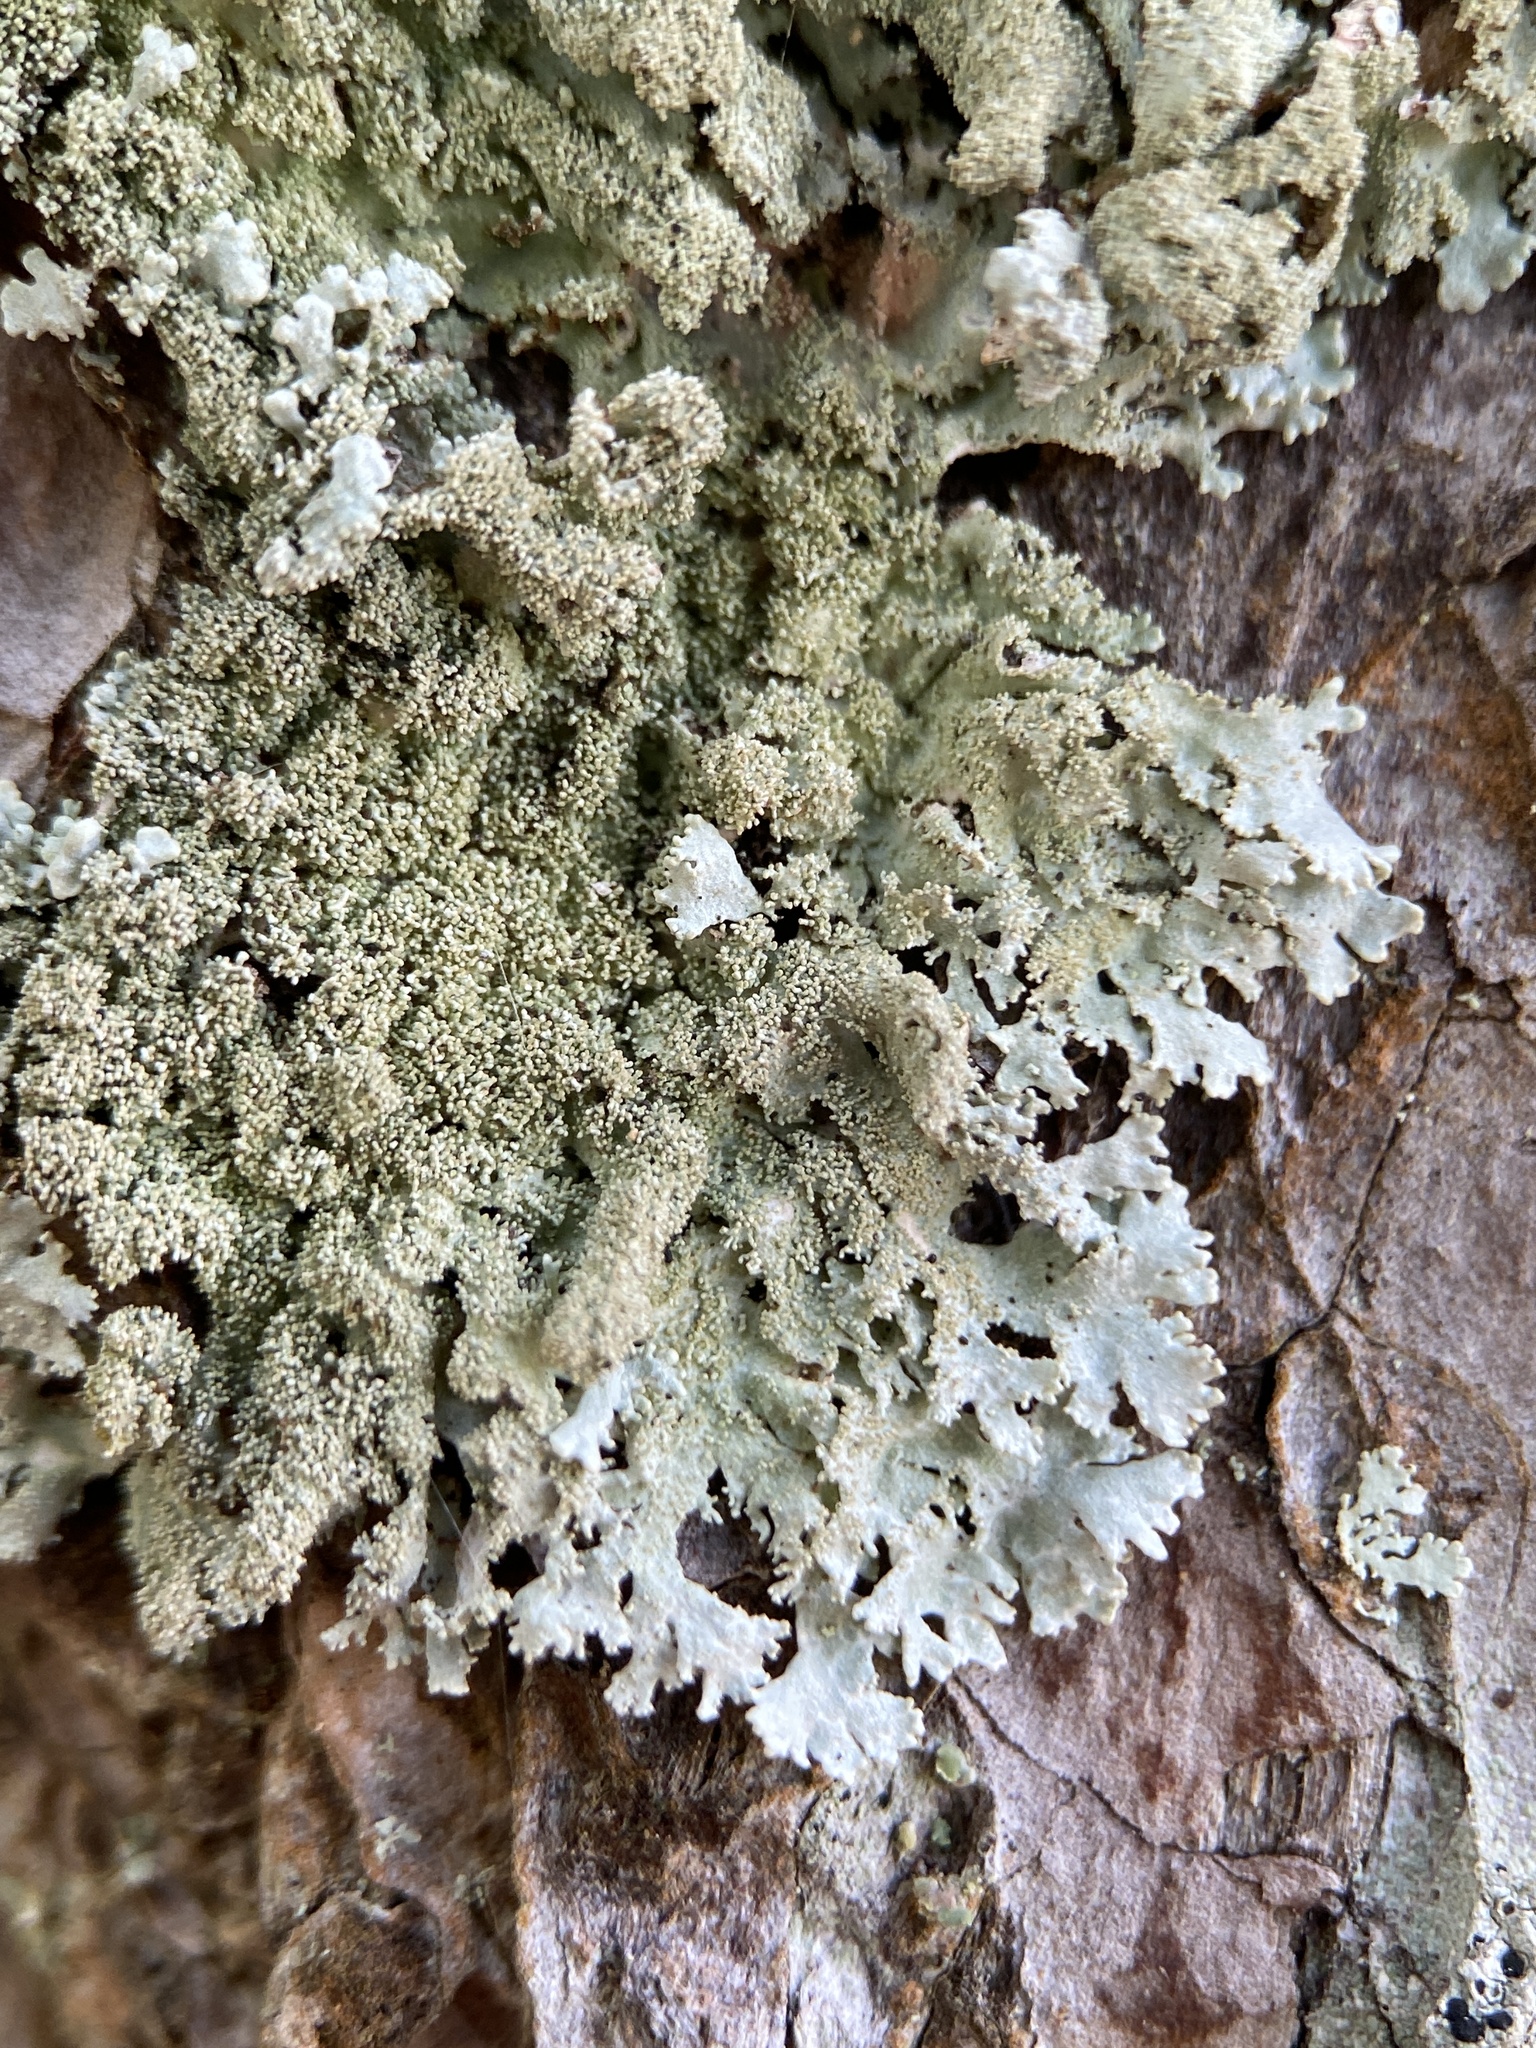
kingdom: Fungi
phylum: Ascomycota
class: Lecanoromycetes
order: Lecanorales
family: Parmeliaceae
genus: Imshaugia
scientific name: Imshaugia aleurites
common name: Salted starburst lichen
